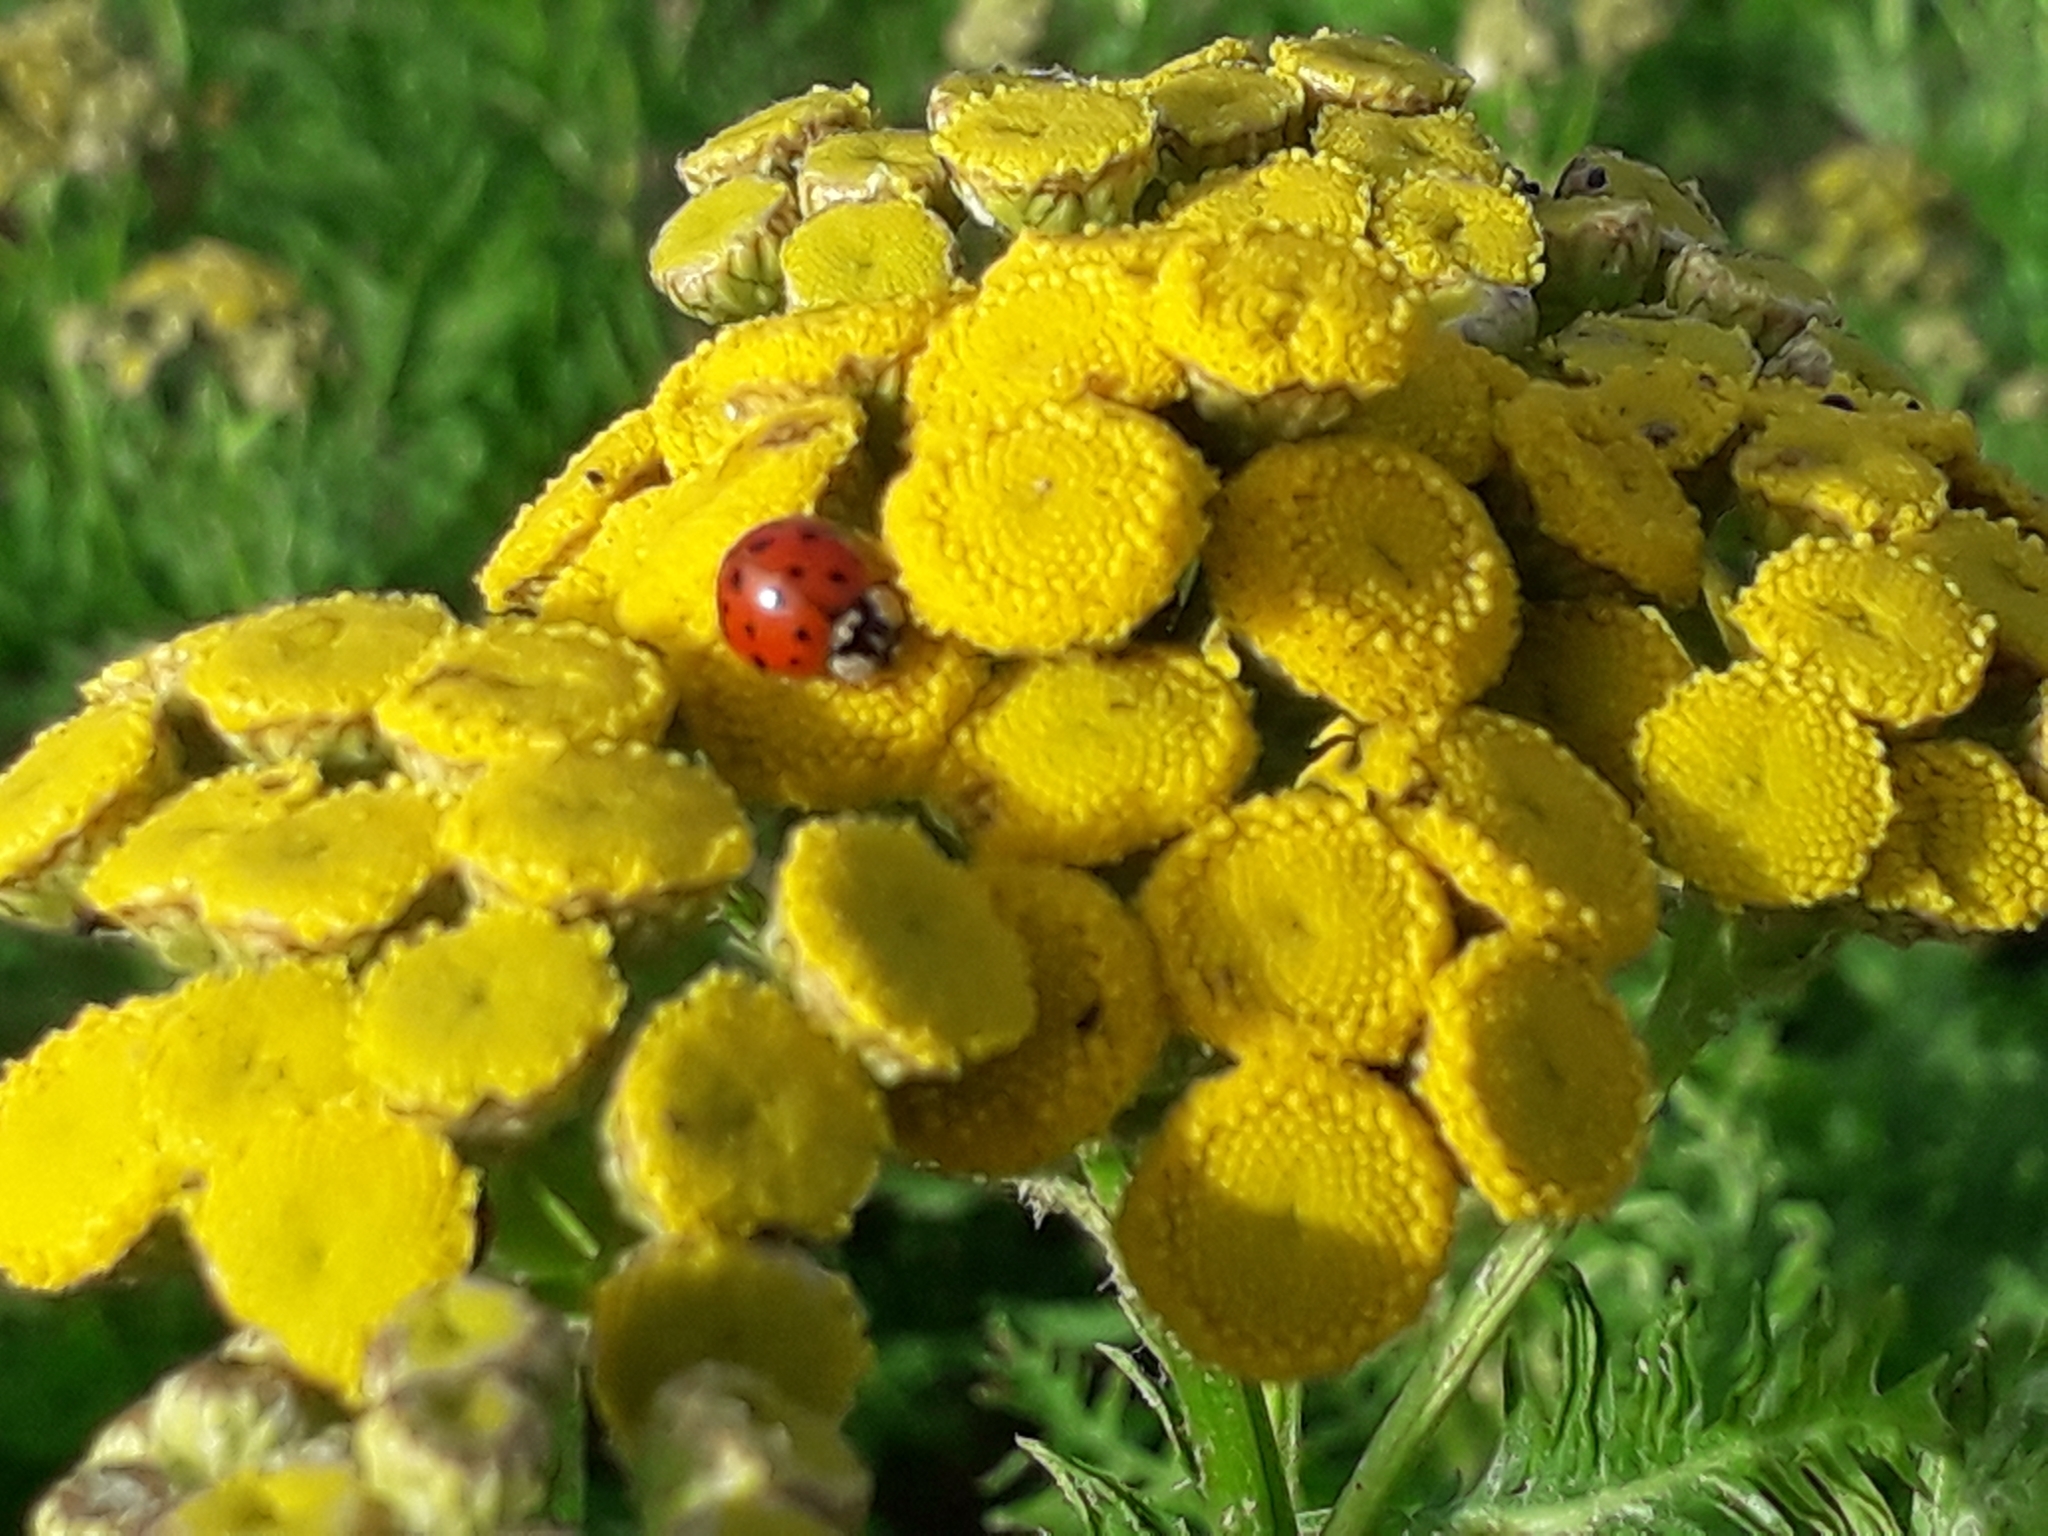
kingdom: Animalia
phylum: Arthropoda
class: Insecta
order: Coleoptera
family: Coccinellidae
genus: Harmonia
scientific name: Harmonia axyridis
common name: Harlequin ladybird
